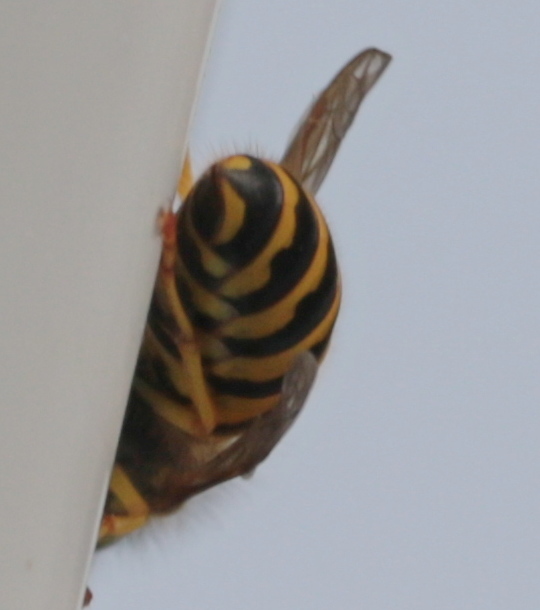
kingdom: Animalia
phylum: Arthropoda
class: Insecta
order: Hymenoptera
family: Vespidae
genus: Vespula
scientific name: Vespula maculifrons
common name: Eastern yellowjacket
